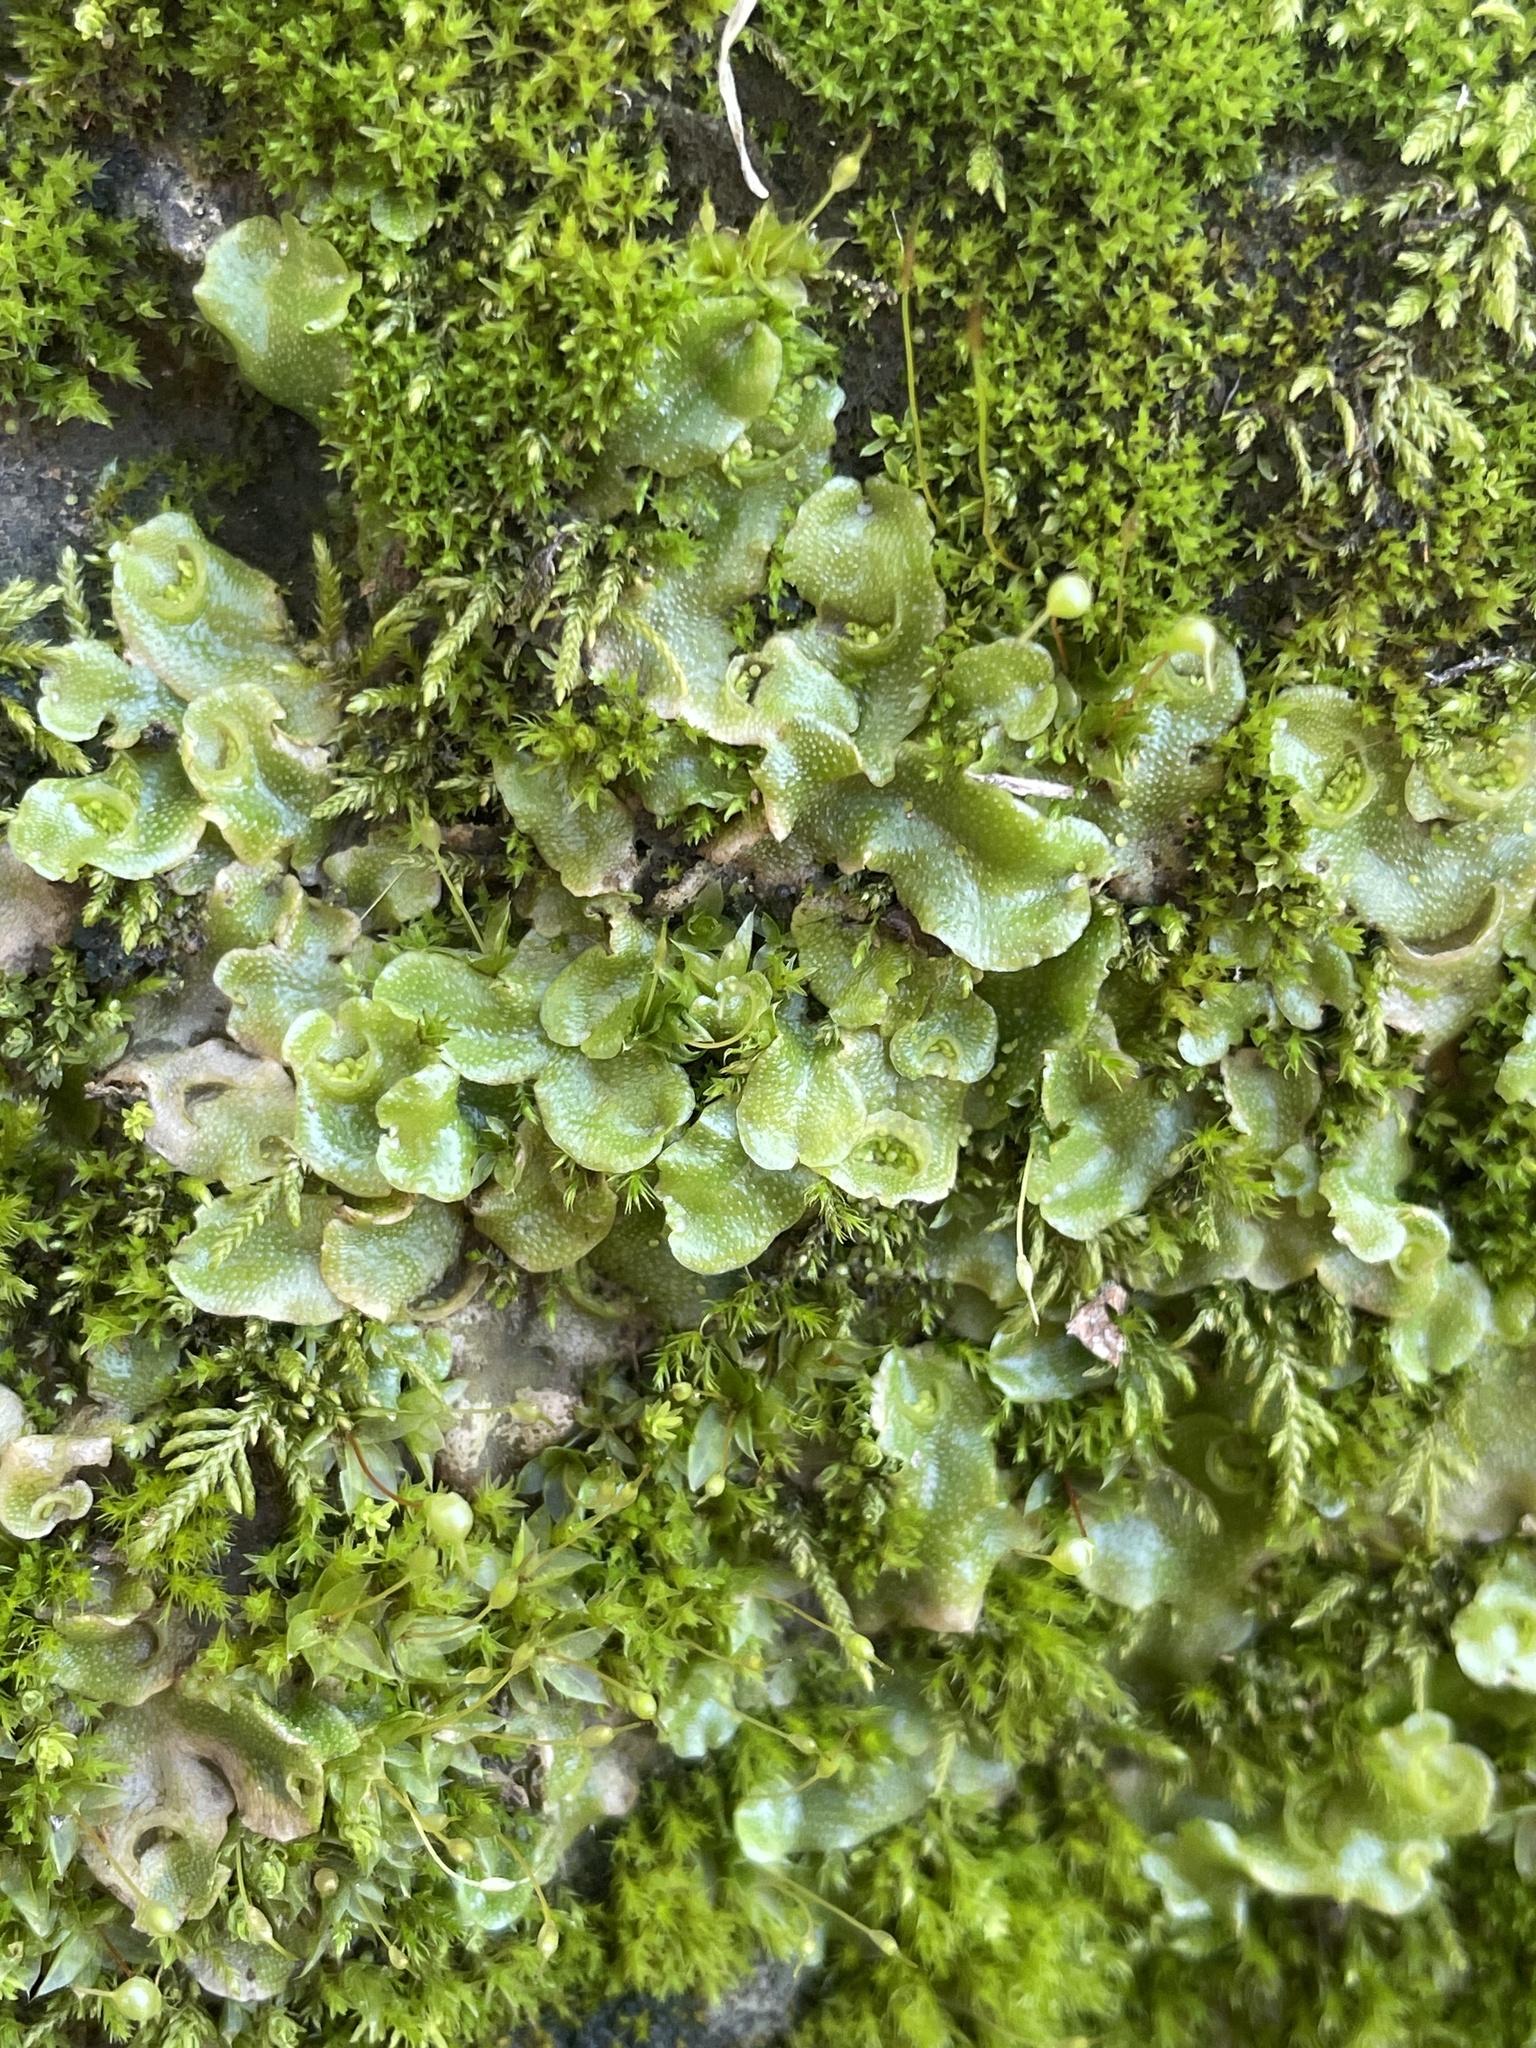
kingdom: Plantae
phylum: Marchantiophyta
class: Marchantiopsida
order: Lunulariales
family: Lunulariaceae
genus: Lunularia
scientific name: Lunularia cruciata
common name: Crescent-cup liverwort
